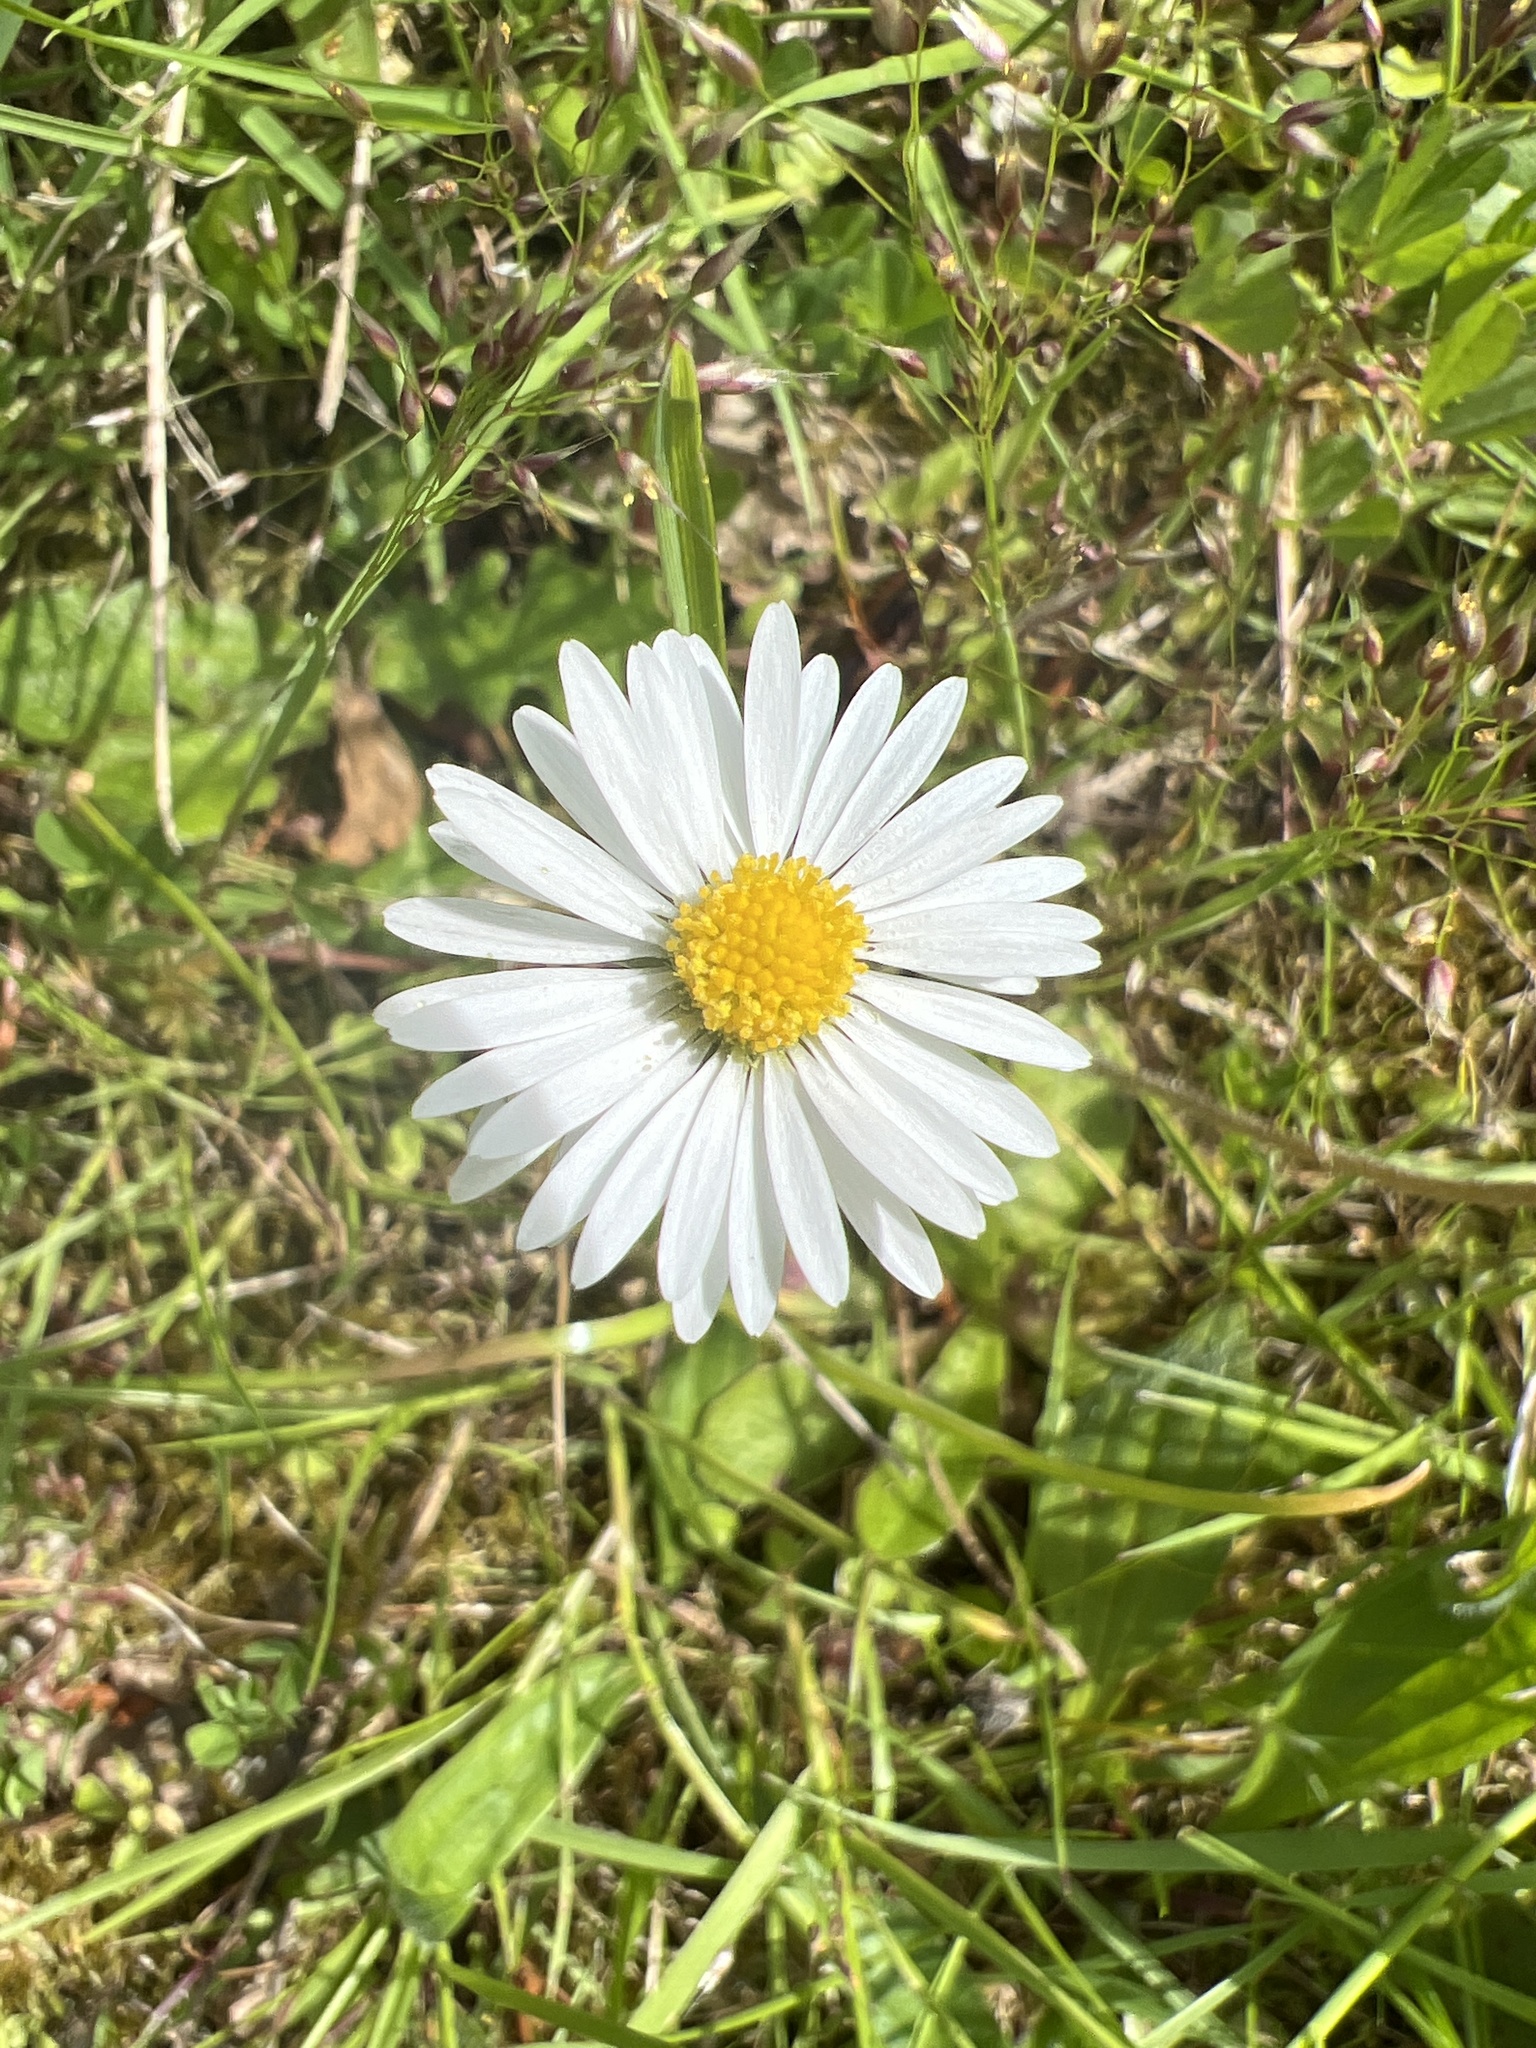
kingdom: Plantae
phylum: Tracheophyta
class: Magnoliopsida
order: Asterales
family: Asteraceae
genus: Bellis
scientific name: Bellis perennis
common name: Lawndaisy
